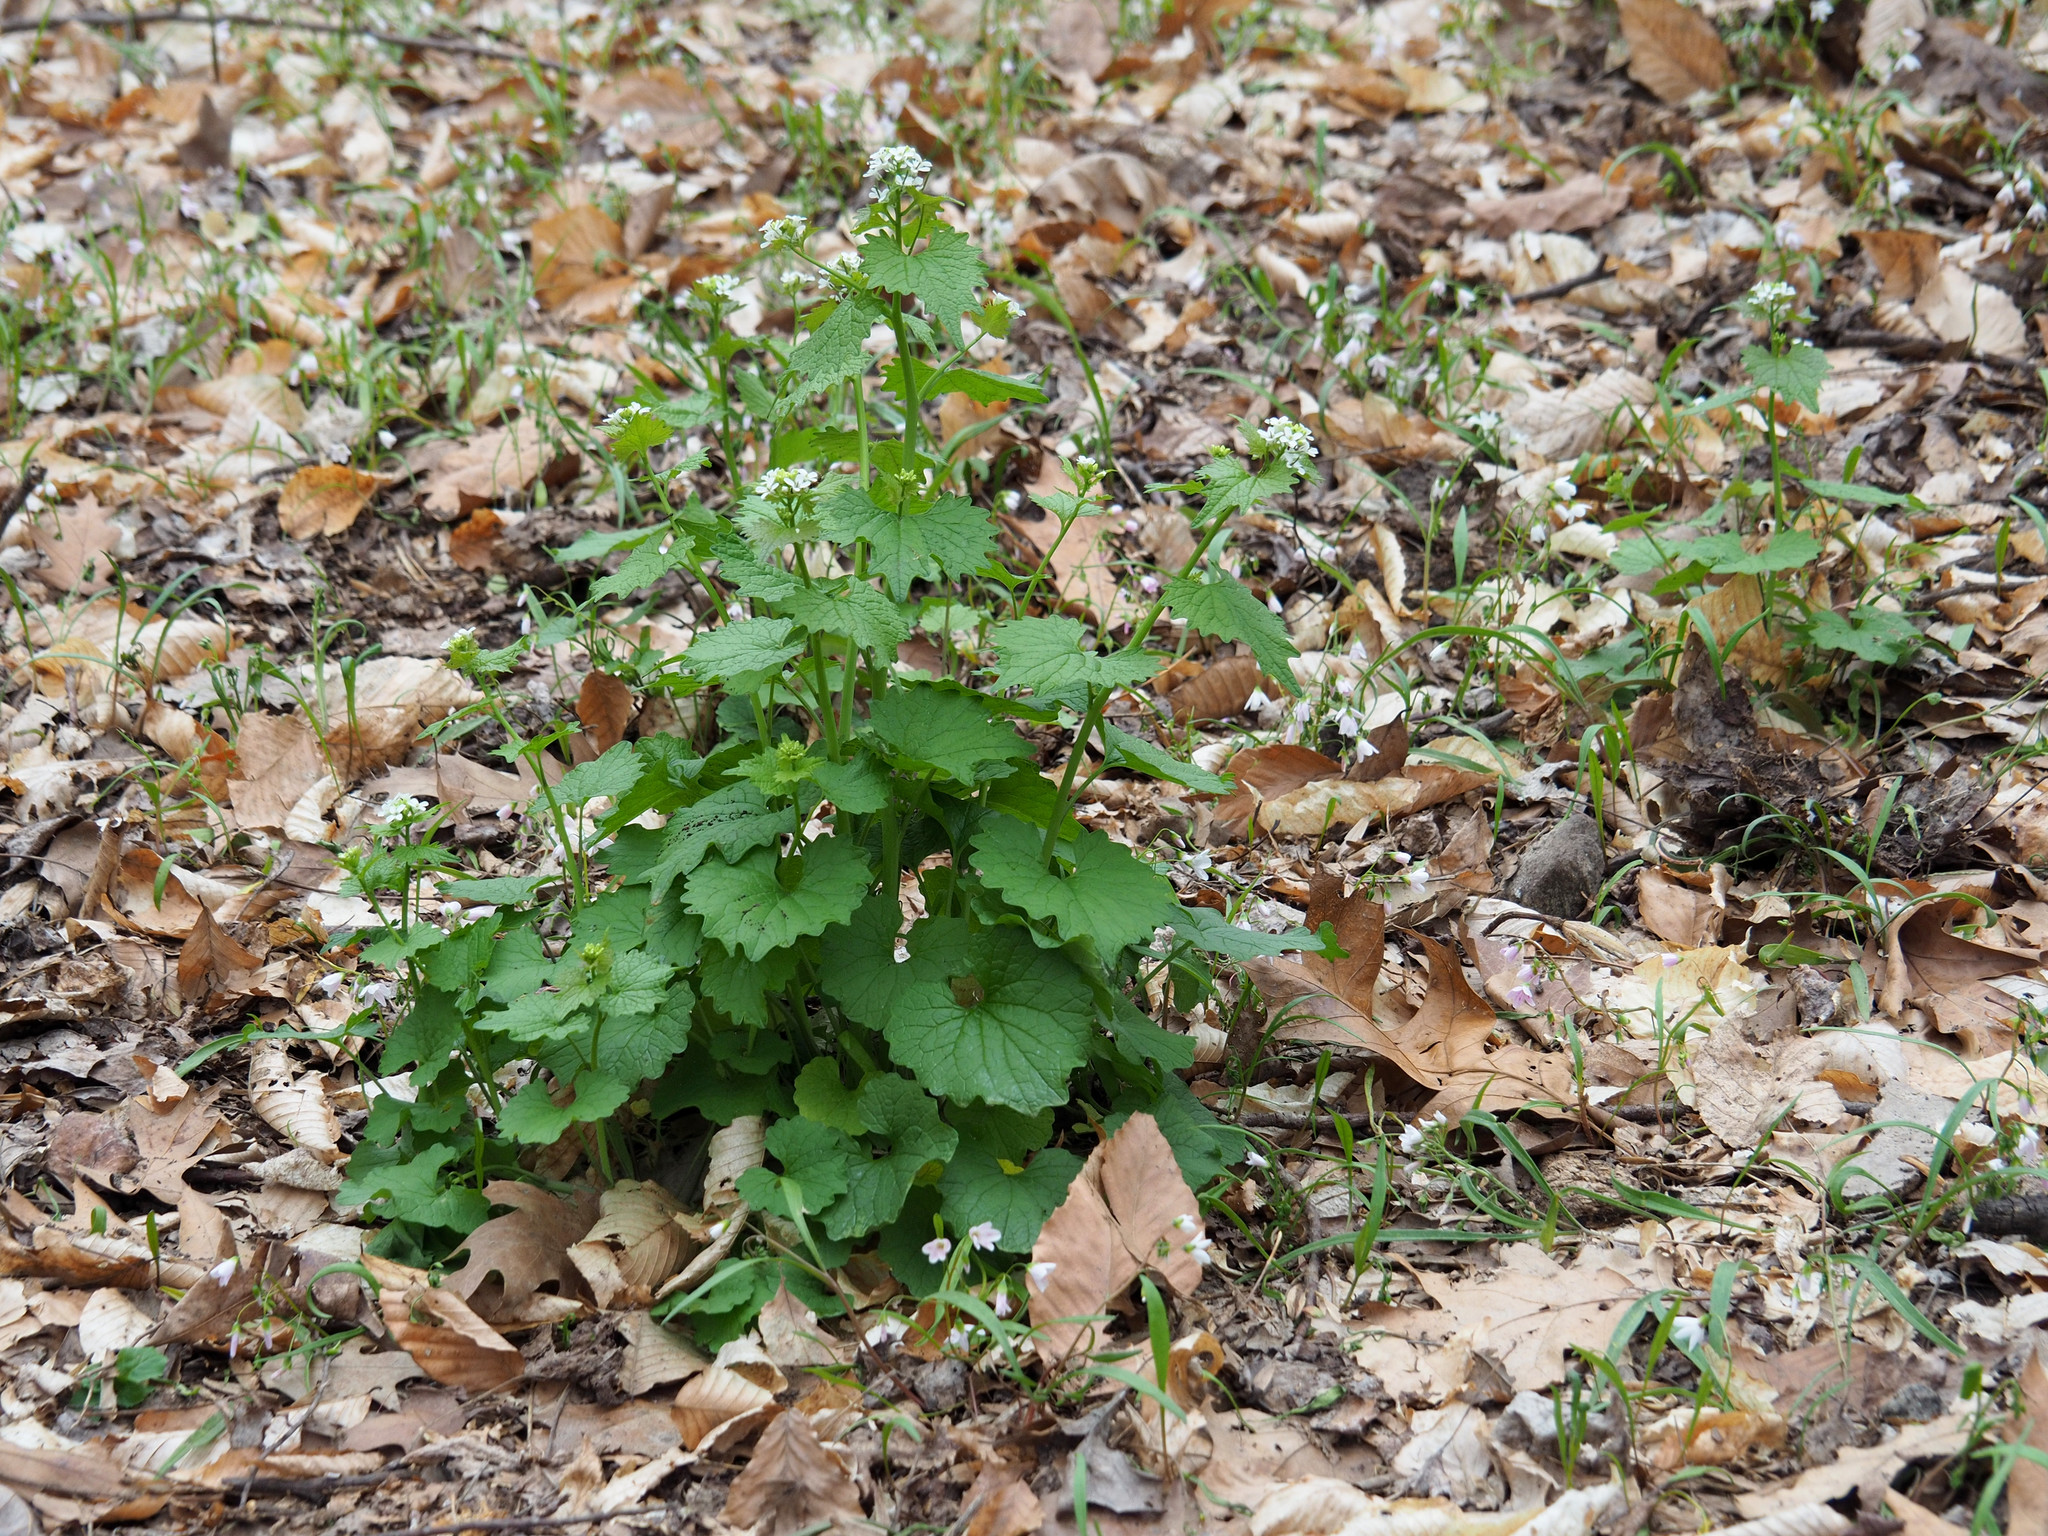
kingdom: Plantae
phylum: Tracheophyta
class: Magnoliopsida
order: Brassicales
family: Brassicaceae
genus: Alliaria
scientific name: Alliaria petiolata
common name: Garlic mustard
